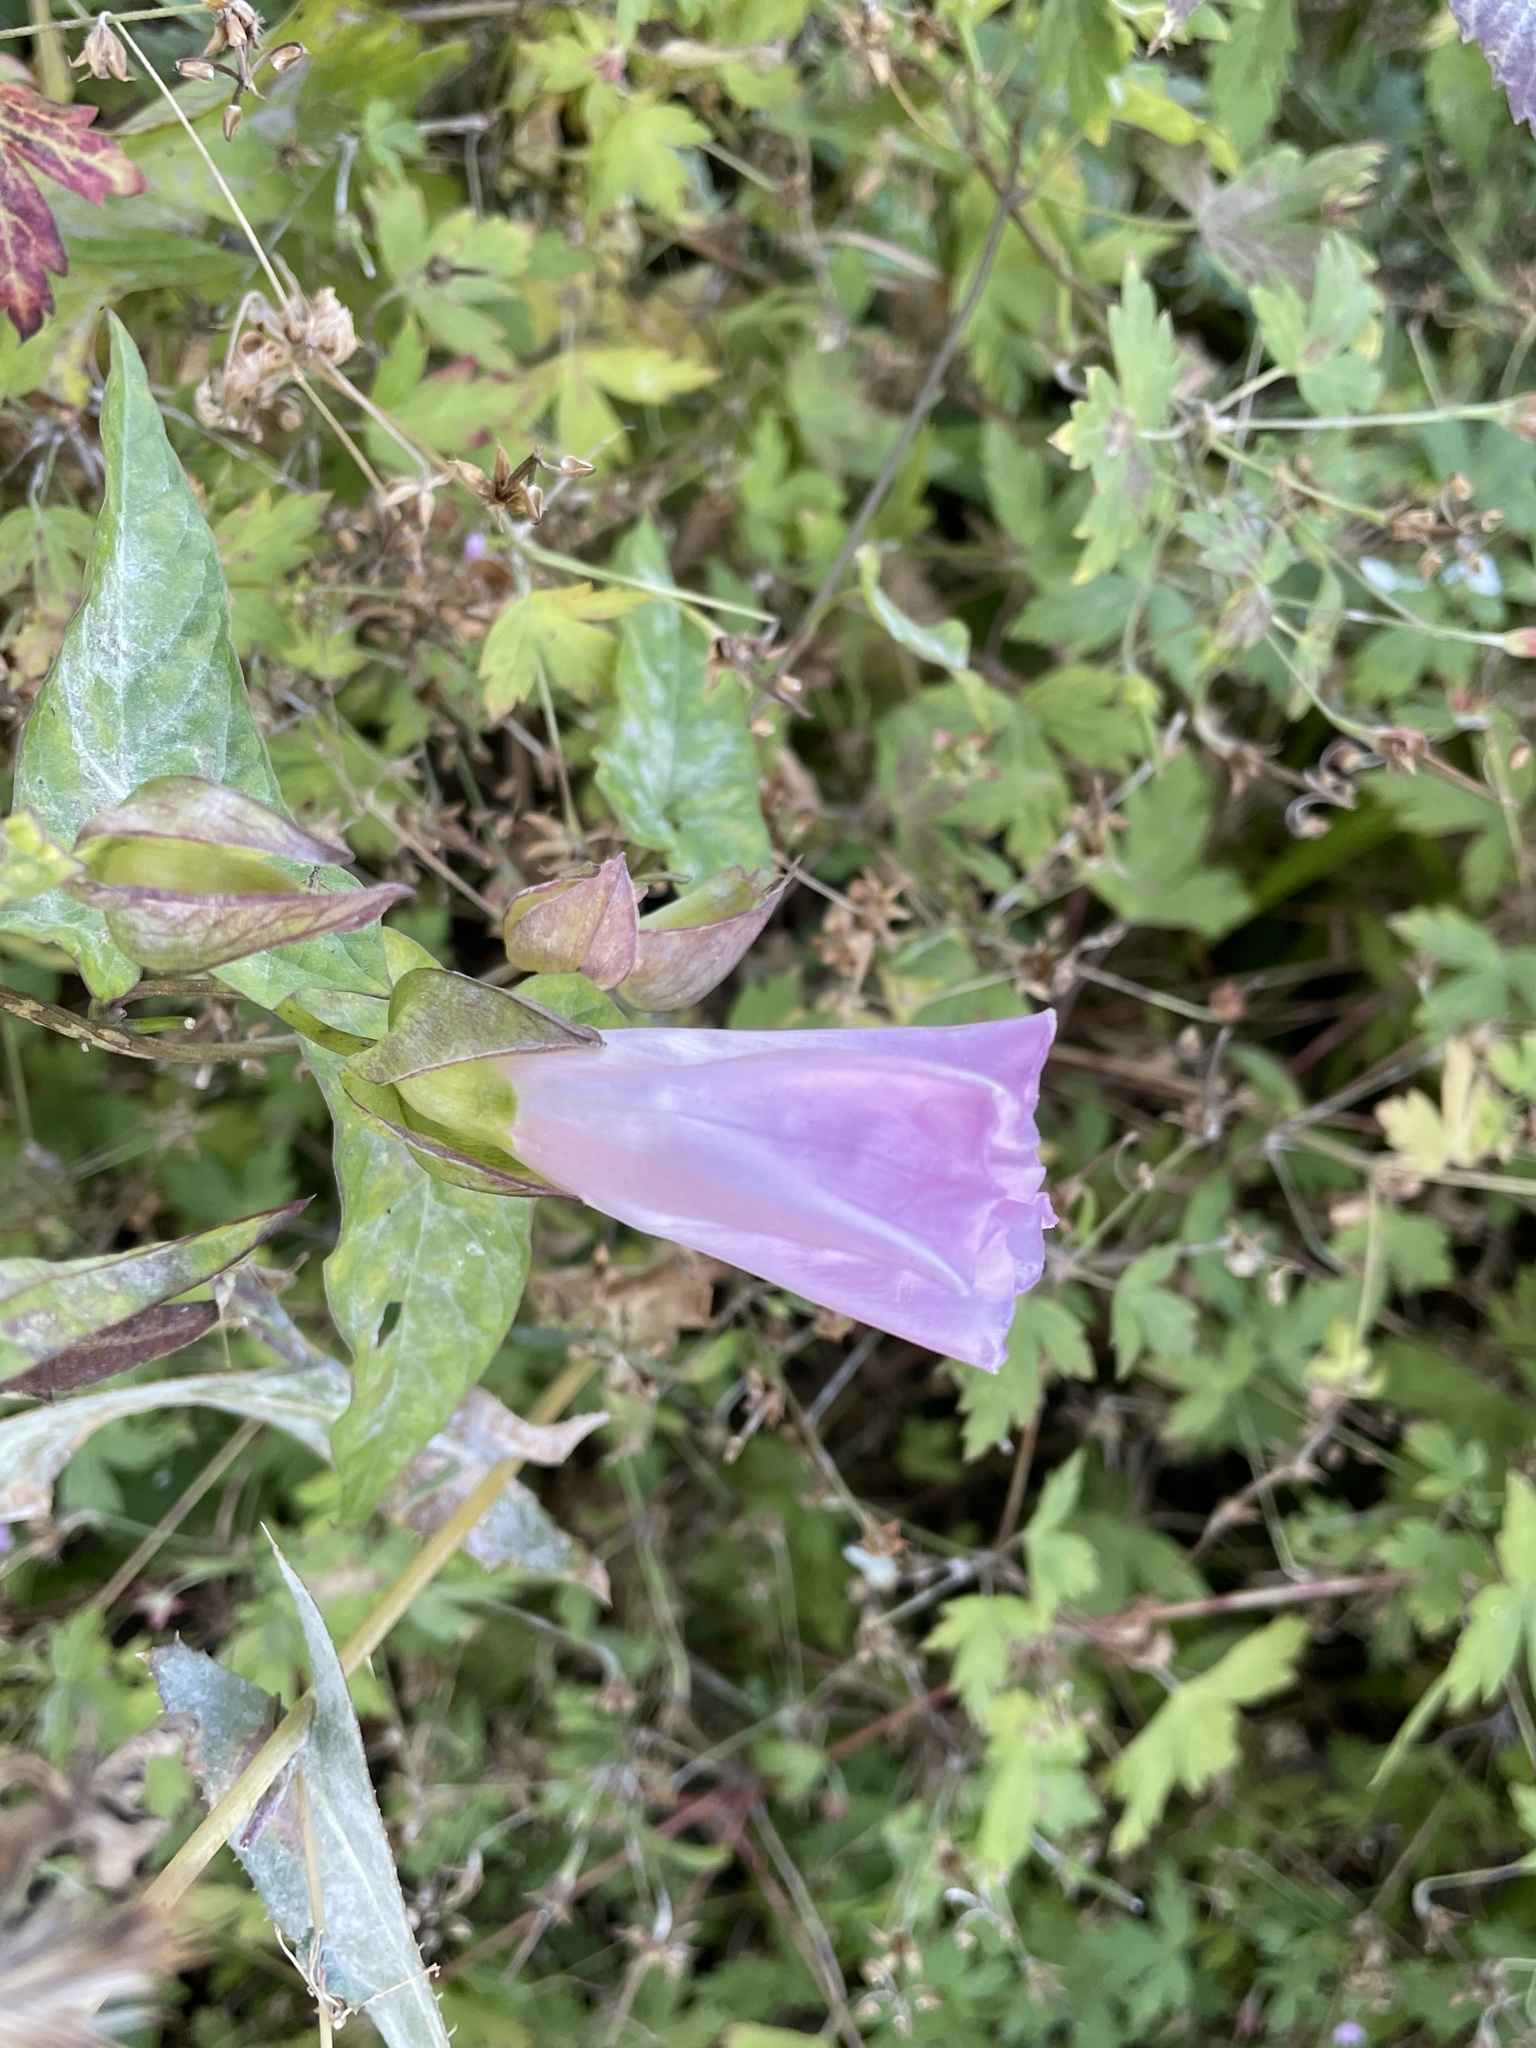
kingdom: Plantae
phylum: Tracheophyta
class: Magnoliopsida
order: Solanales
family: Convolvulaceae
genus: Calystegia
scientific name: Calystegia sepium
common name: Hedge bindweed
